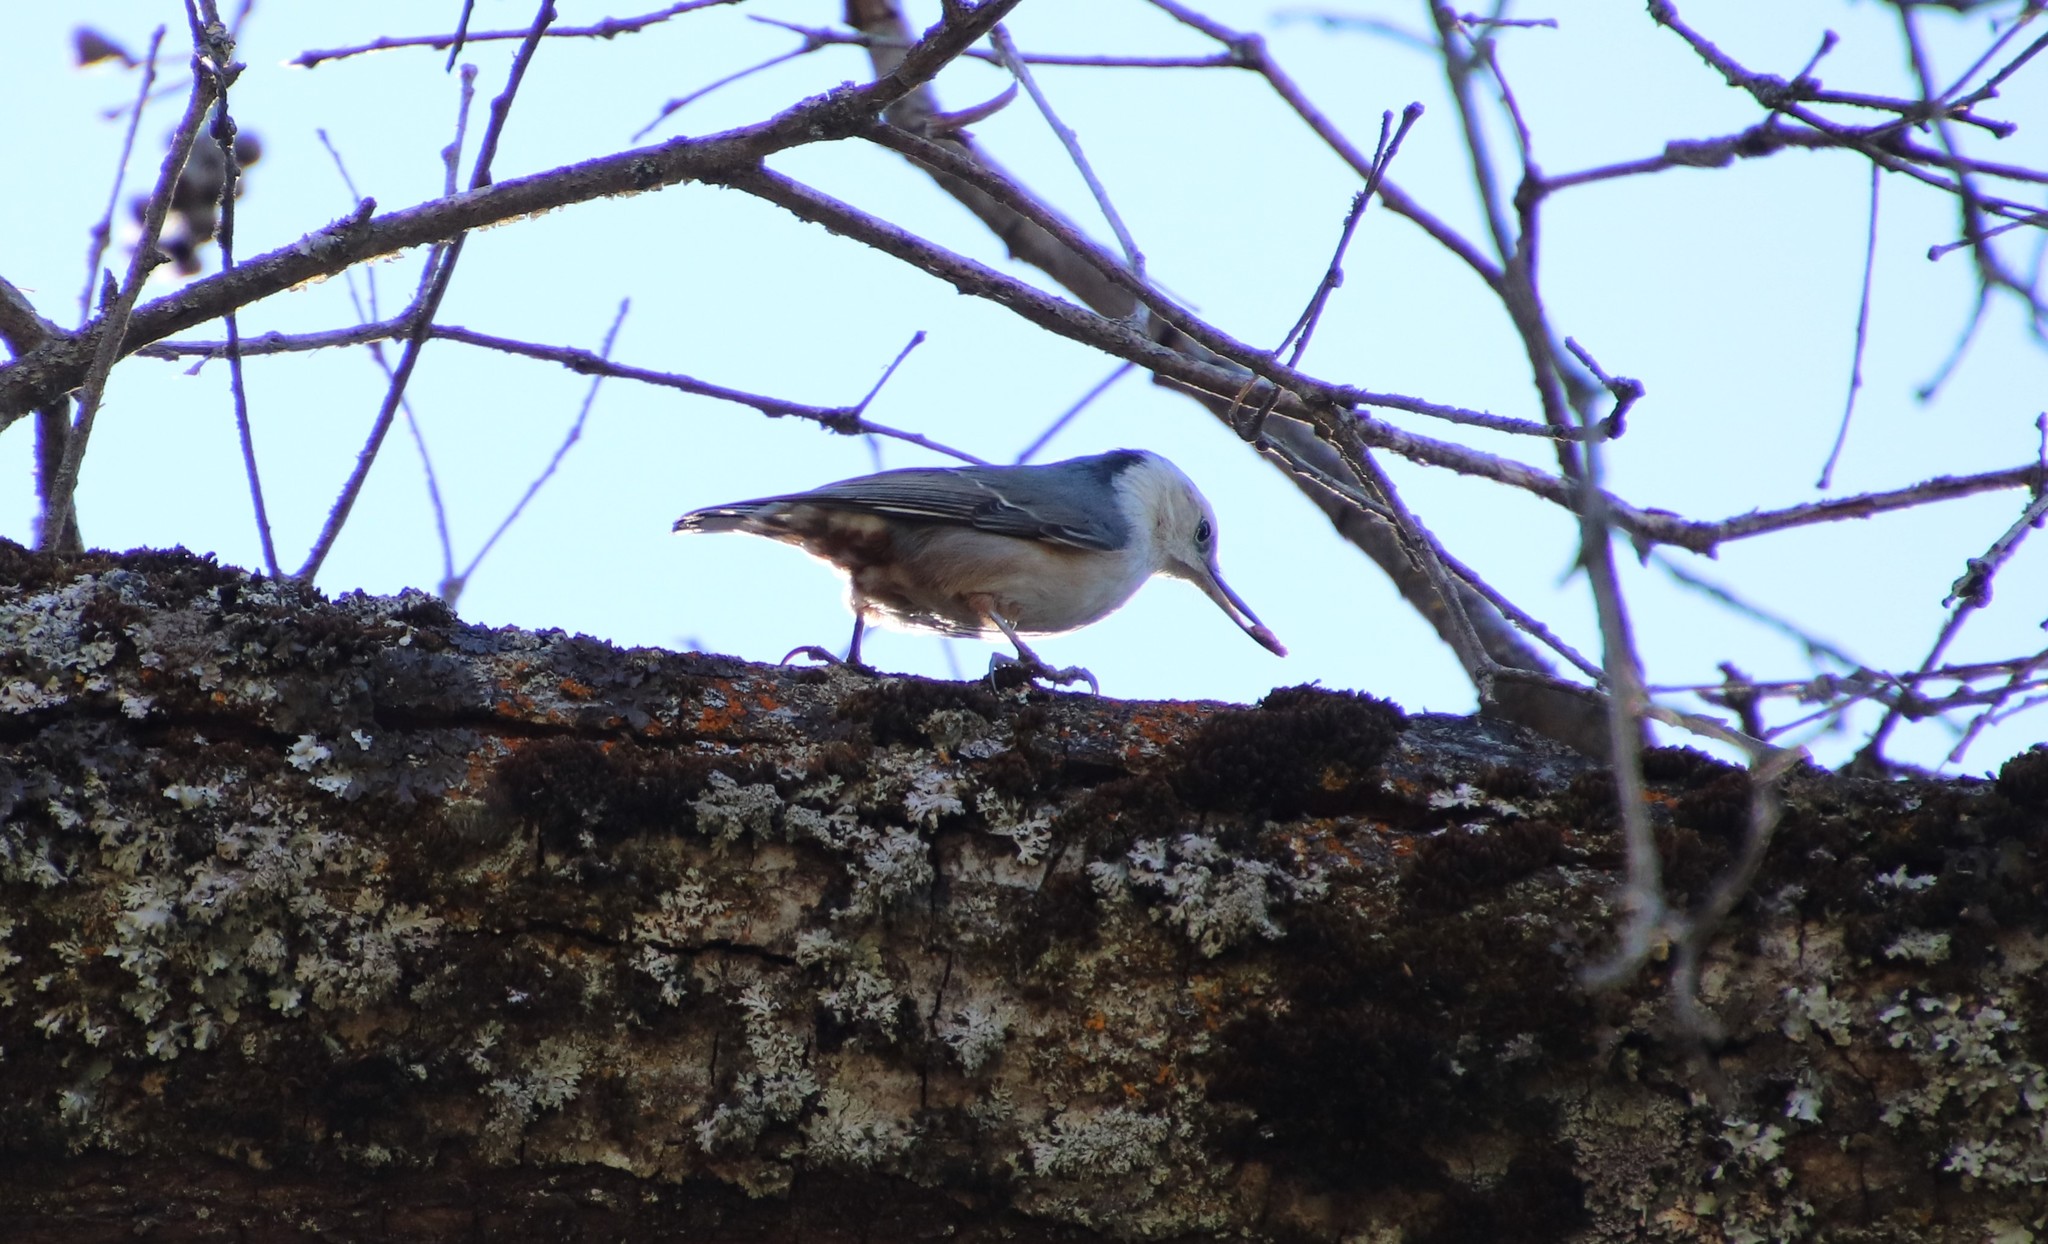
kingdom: Animalia
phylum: Chordata
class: Aves
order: Passeriformes
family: Sittidae
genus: Sitta
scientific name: Sitta carolinensis
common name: White-breasted nuthatch
